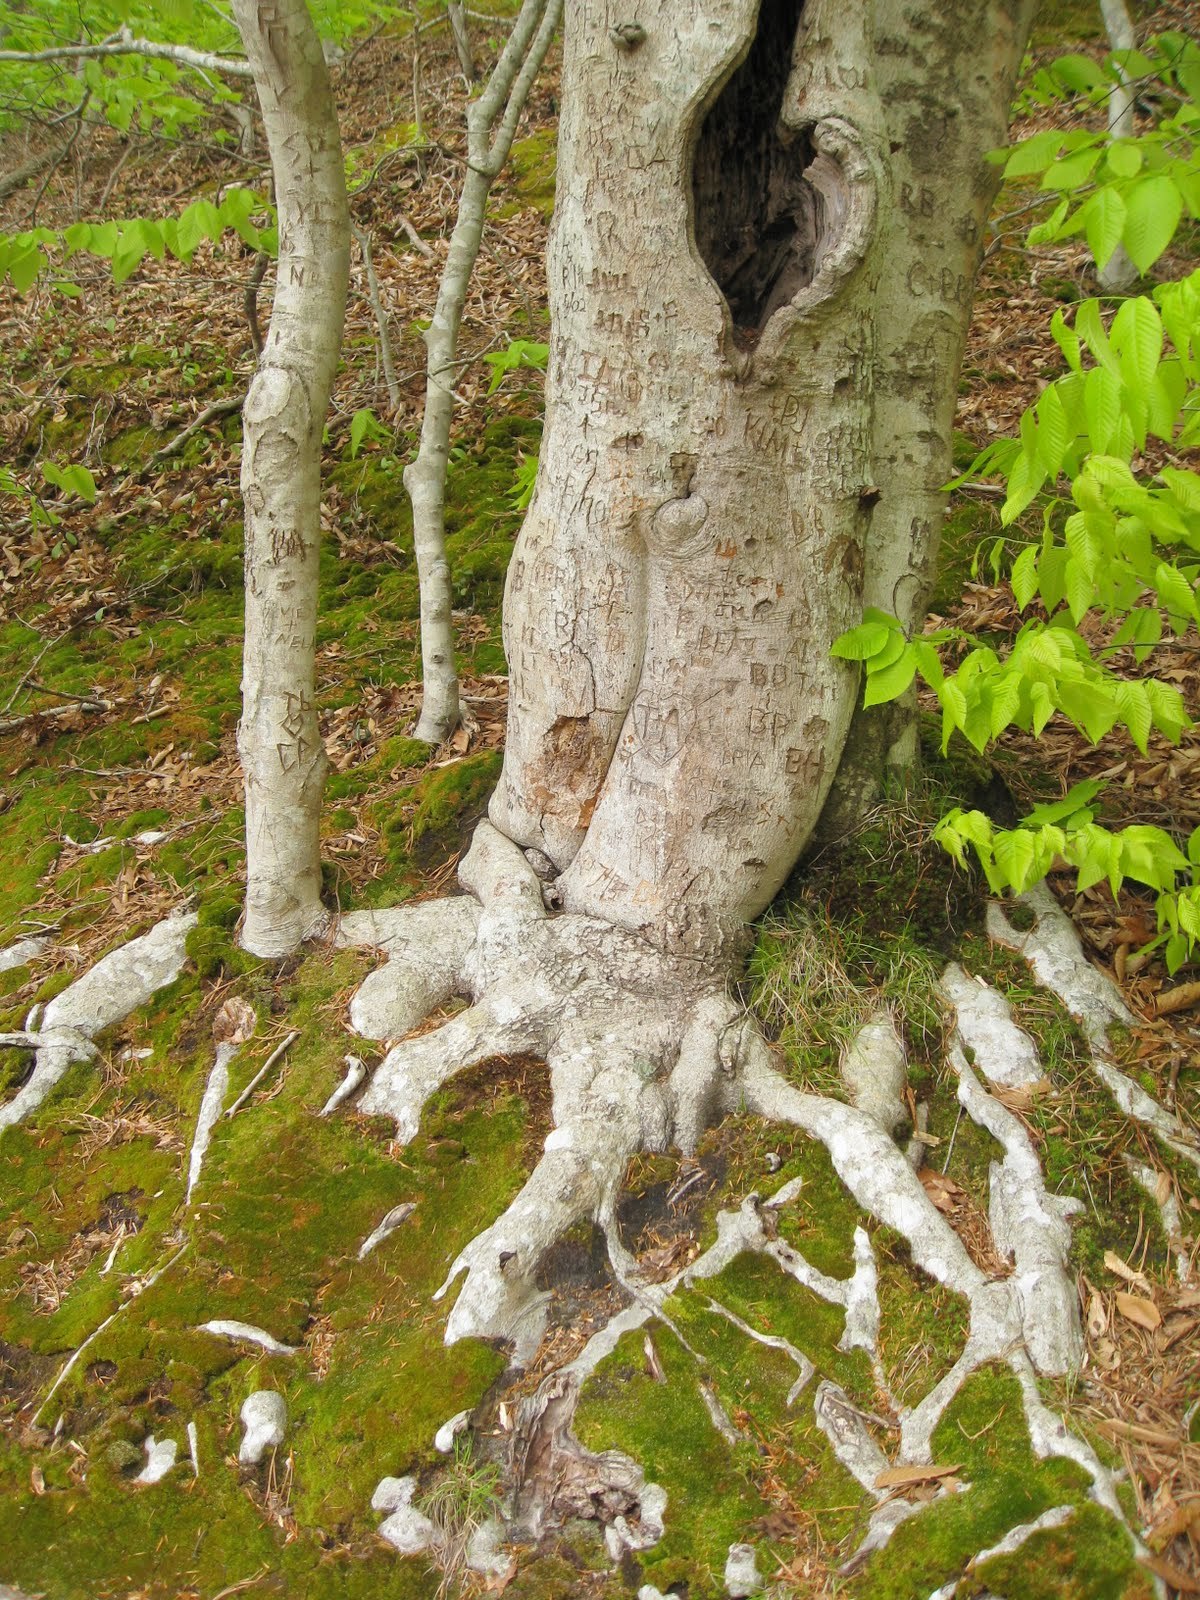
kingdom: Plantae
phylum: Tracheophyta
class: Magnoliopsida
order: Fagales
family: Fagaceae
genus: Fagus
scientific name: Fagus grandifolia
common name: American beech
